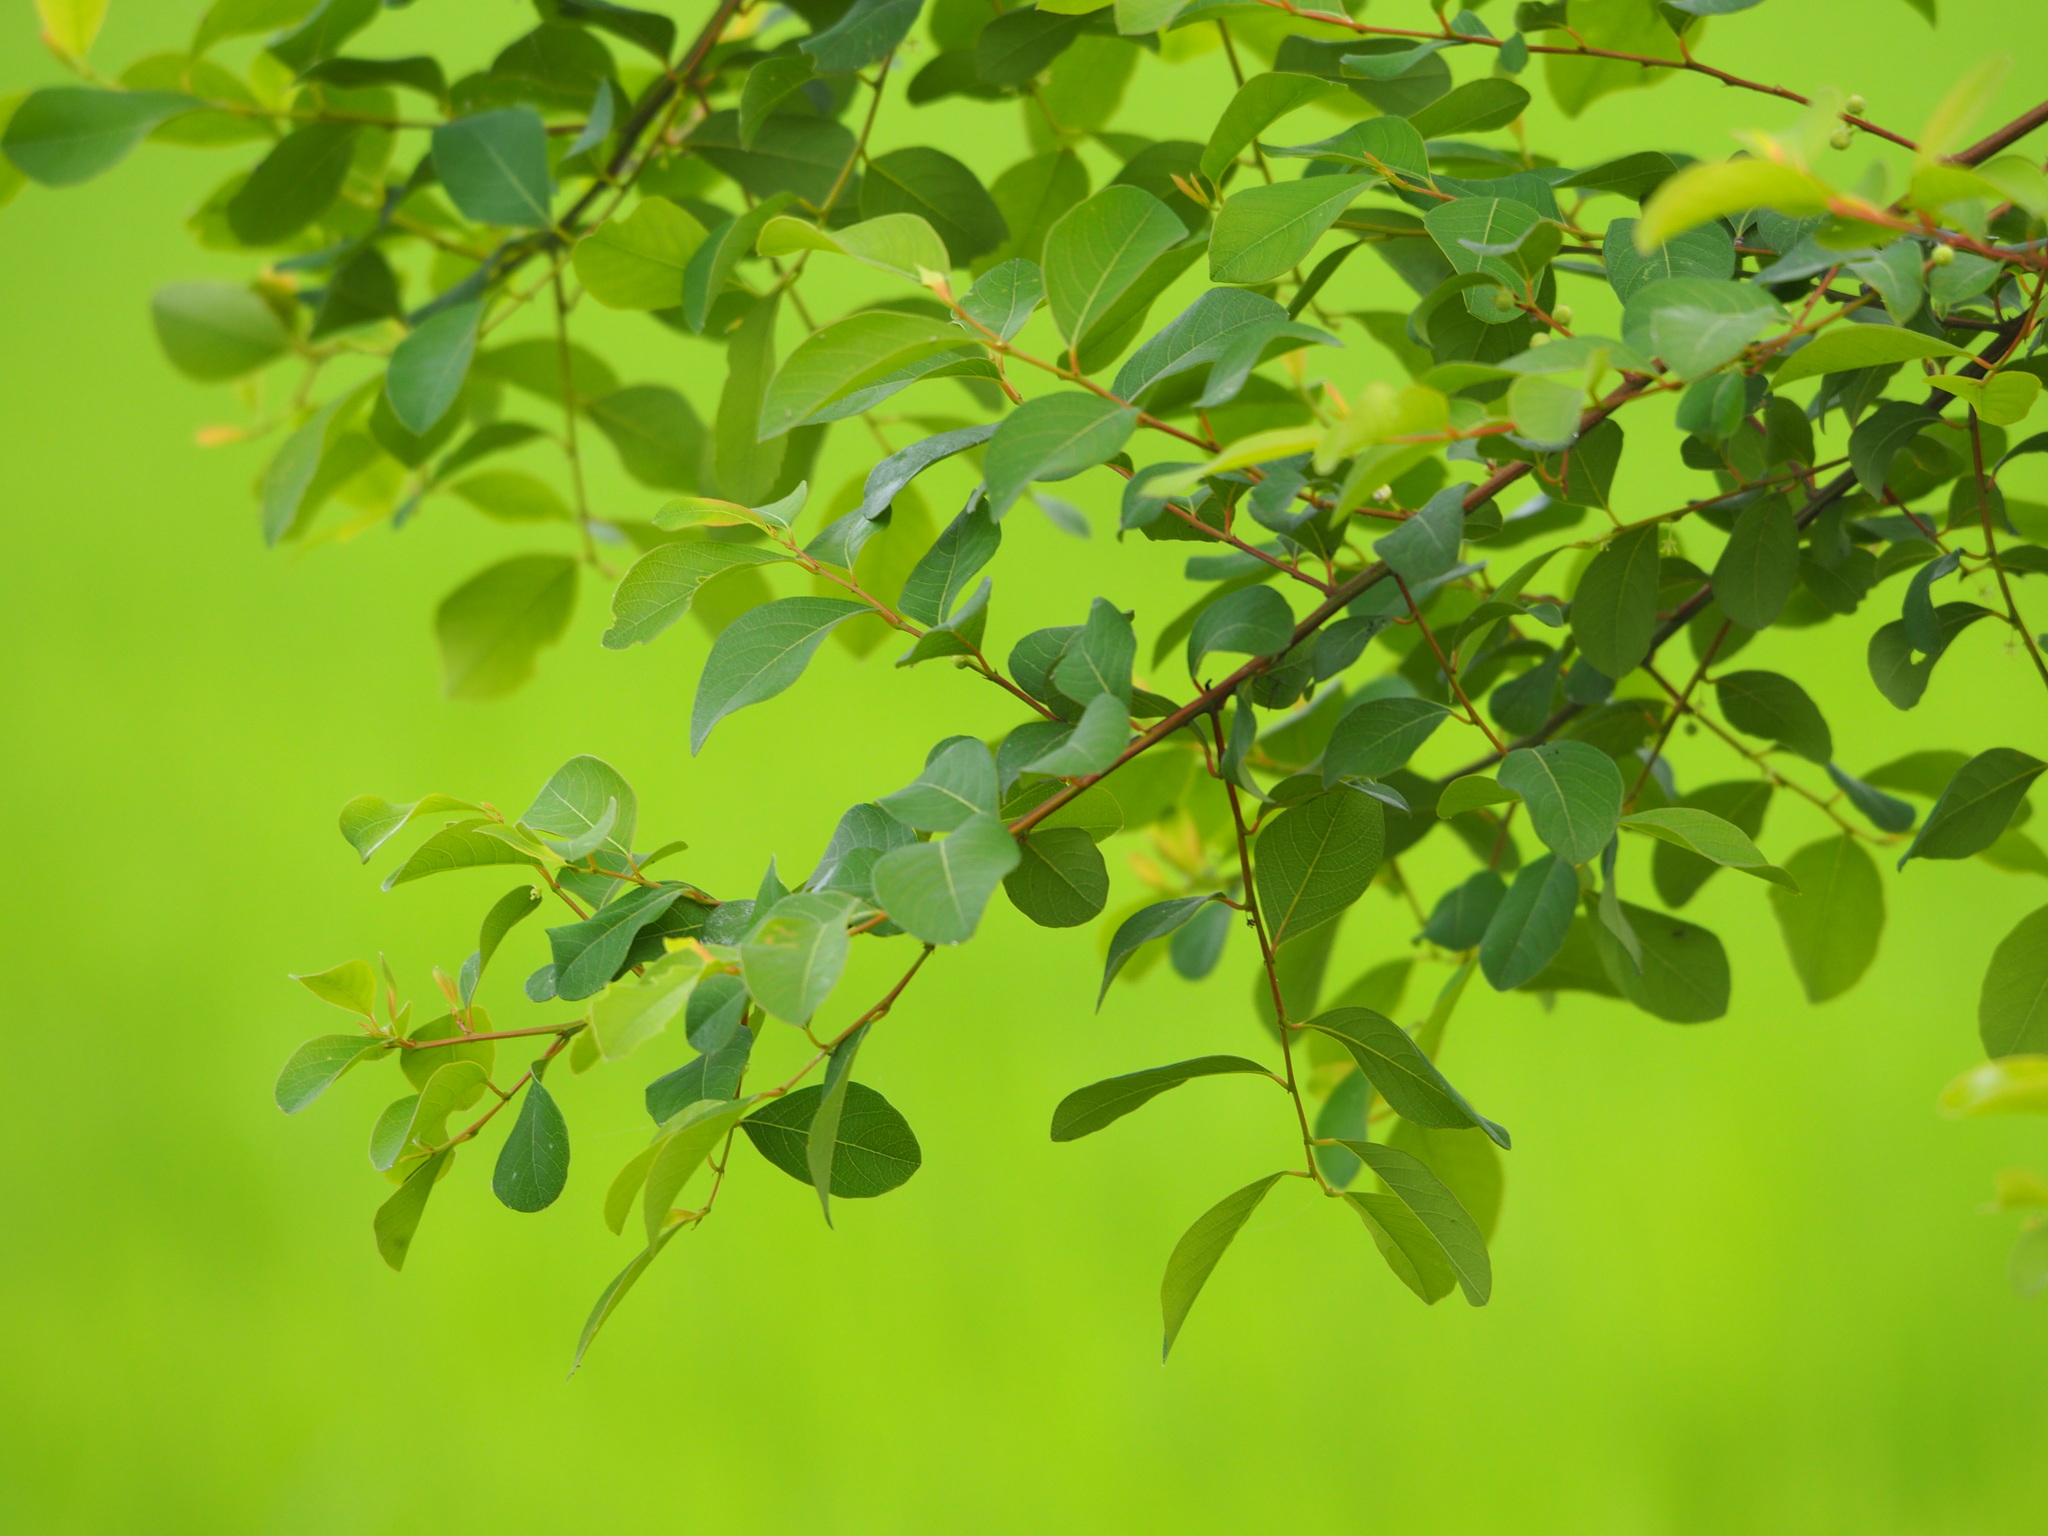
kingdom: Plantae
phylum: Tracheophyta
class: Magnoliopsida
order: Malpighiales
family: Phyllanthaceae
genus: Flueggea
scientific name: Flueggea virosa
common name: Common bushweed
